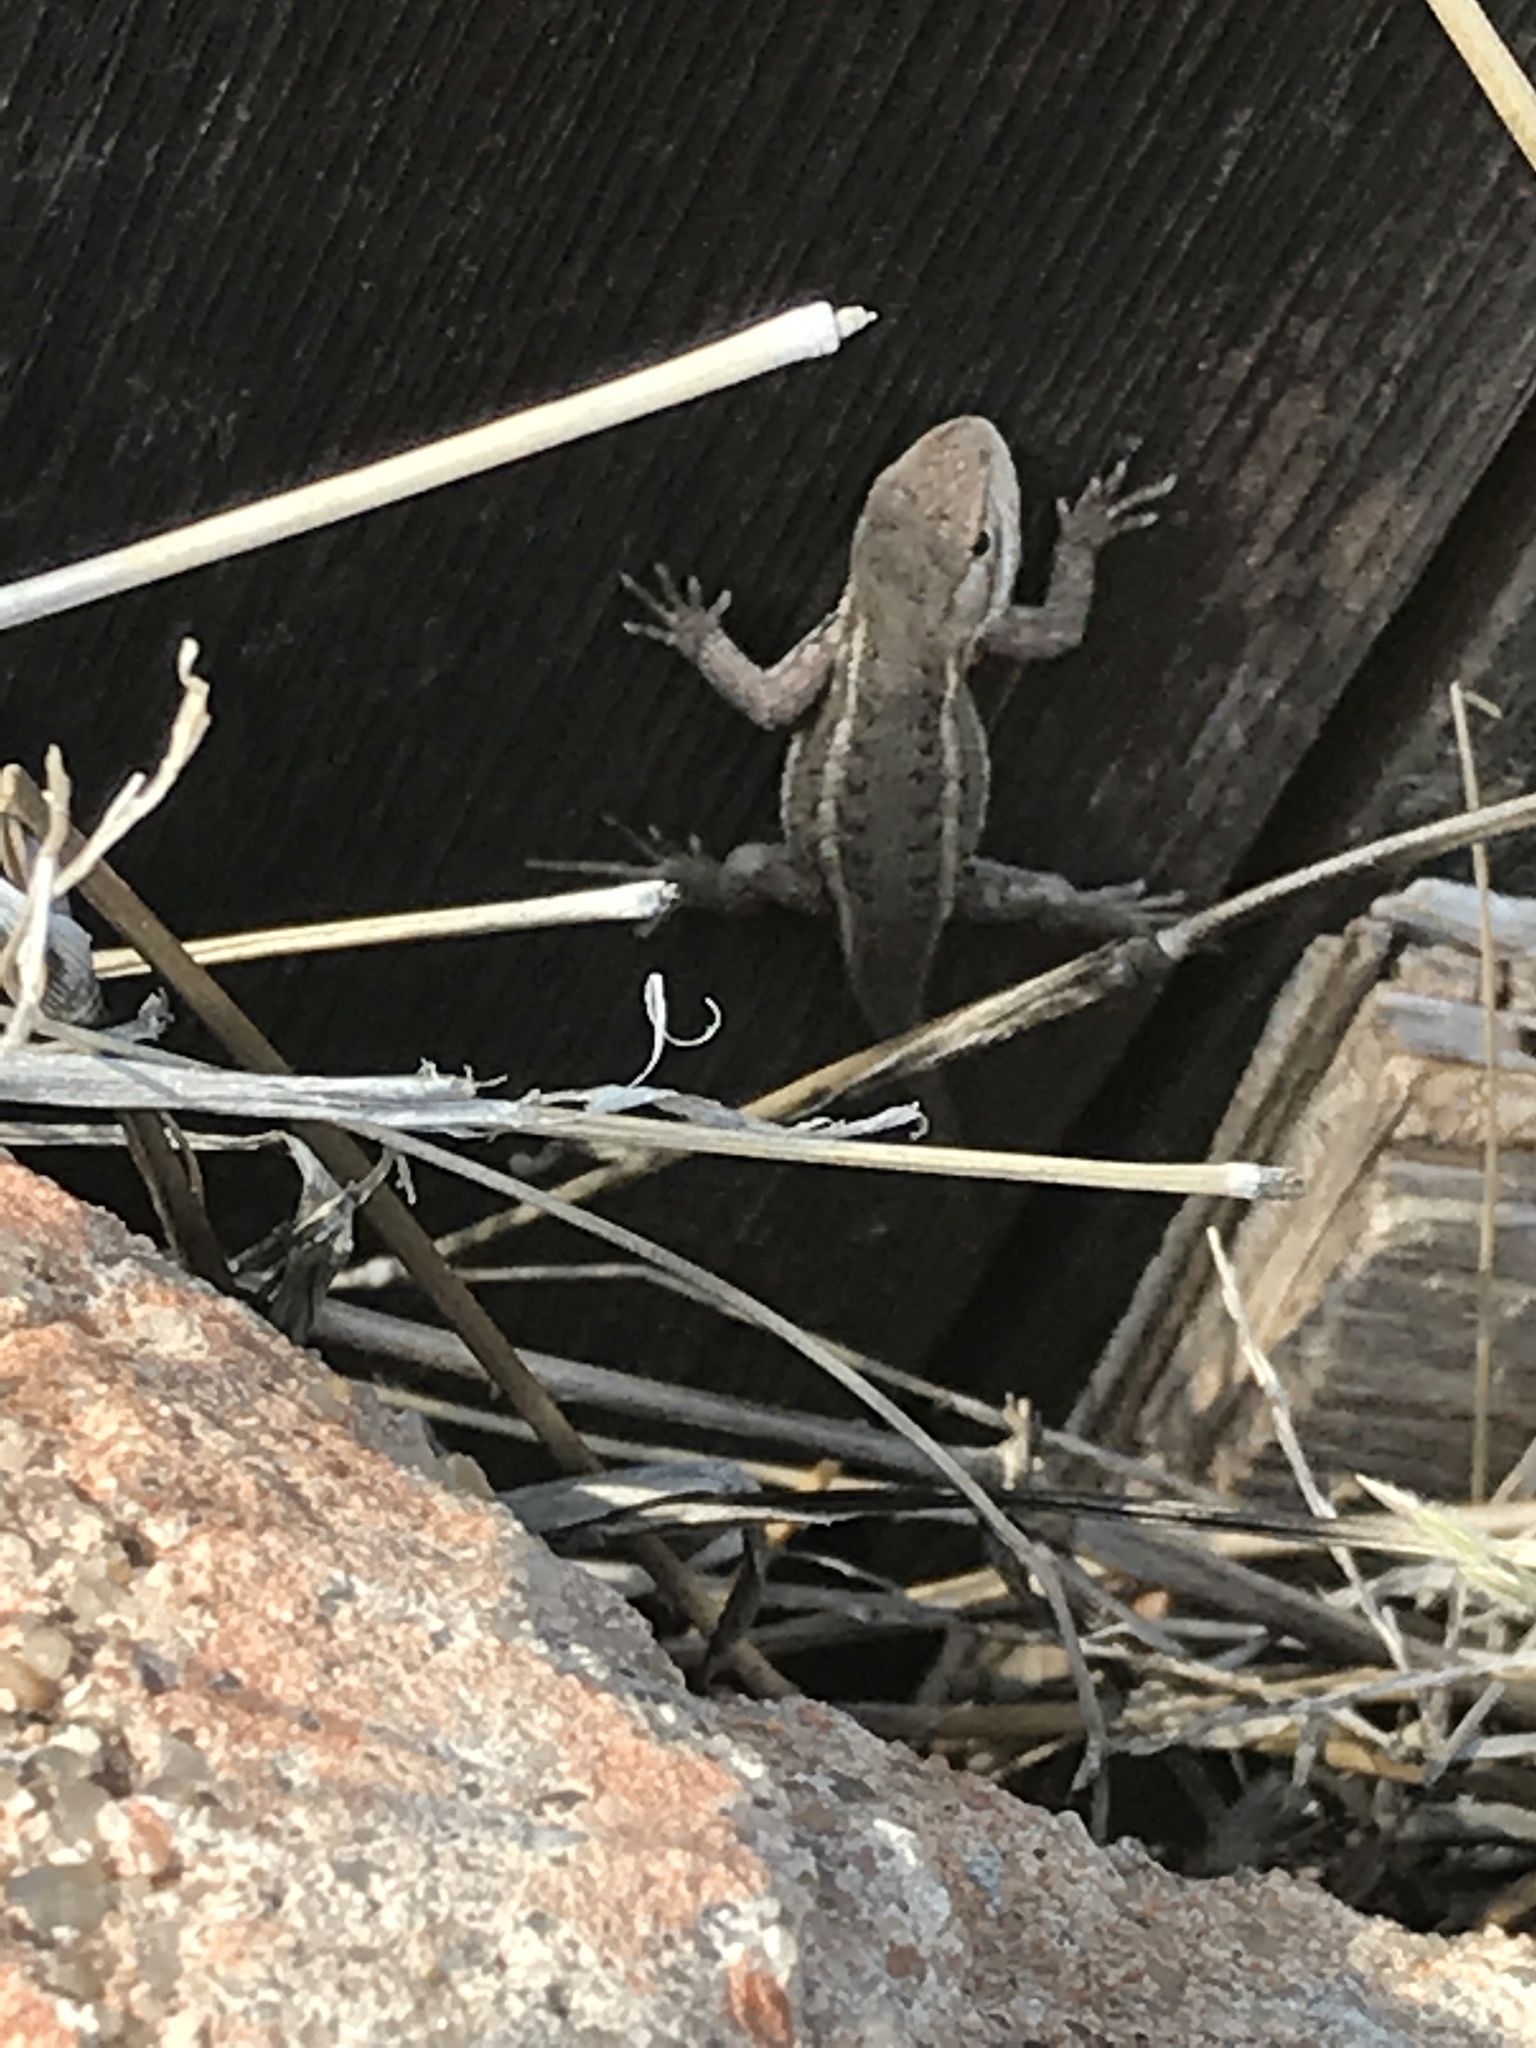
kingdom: Animalia
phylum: Chordata
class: Squamata
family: Phrynosomatidae
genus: Sceloporus
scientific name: Sceloporus consobrinus
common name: Southern prairie lizard
